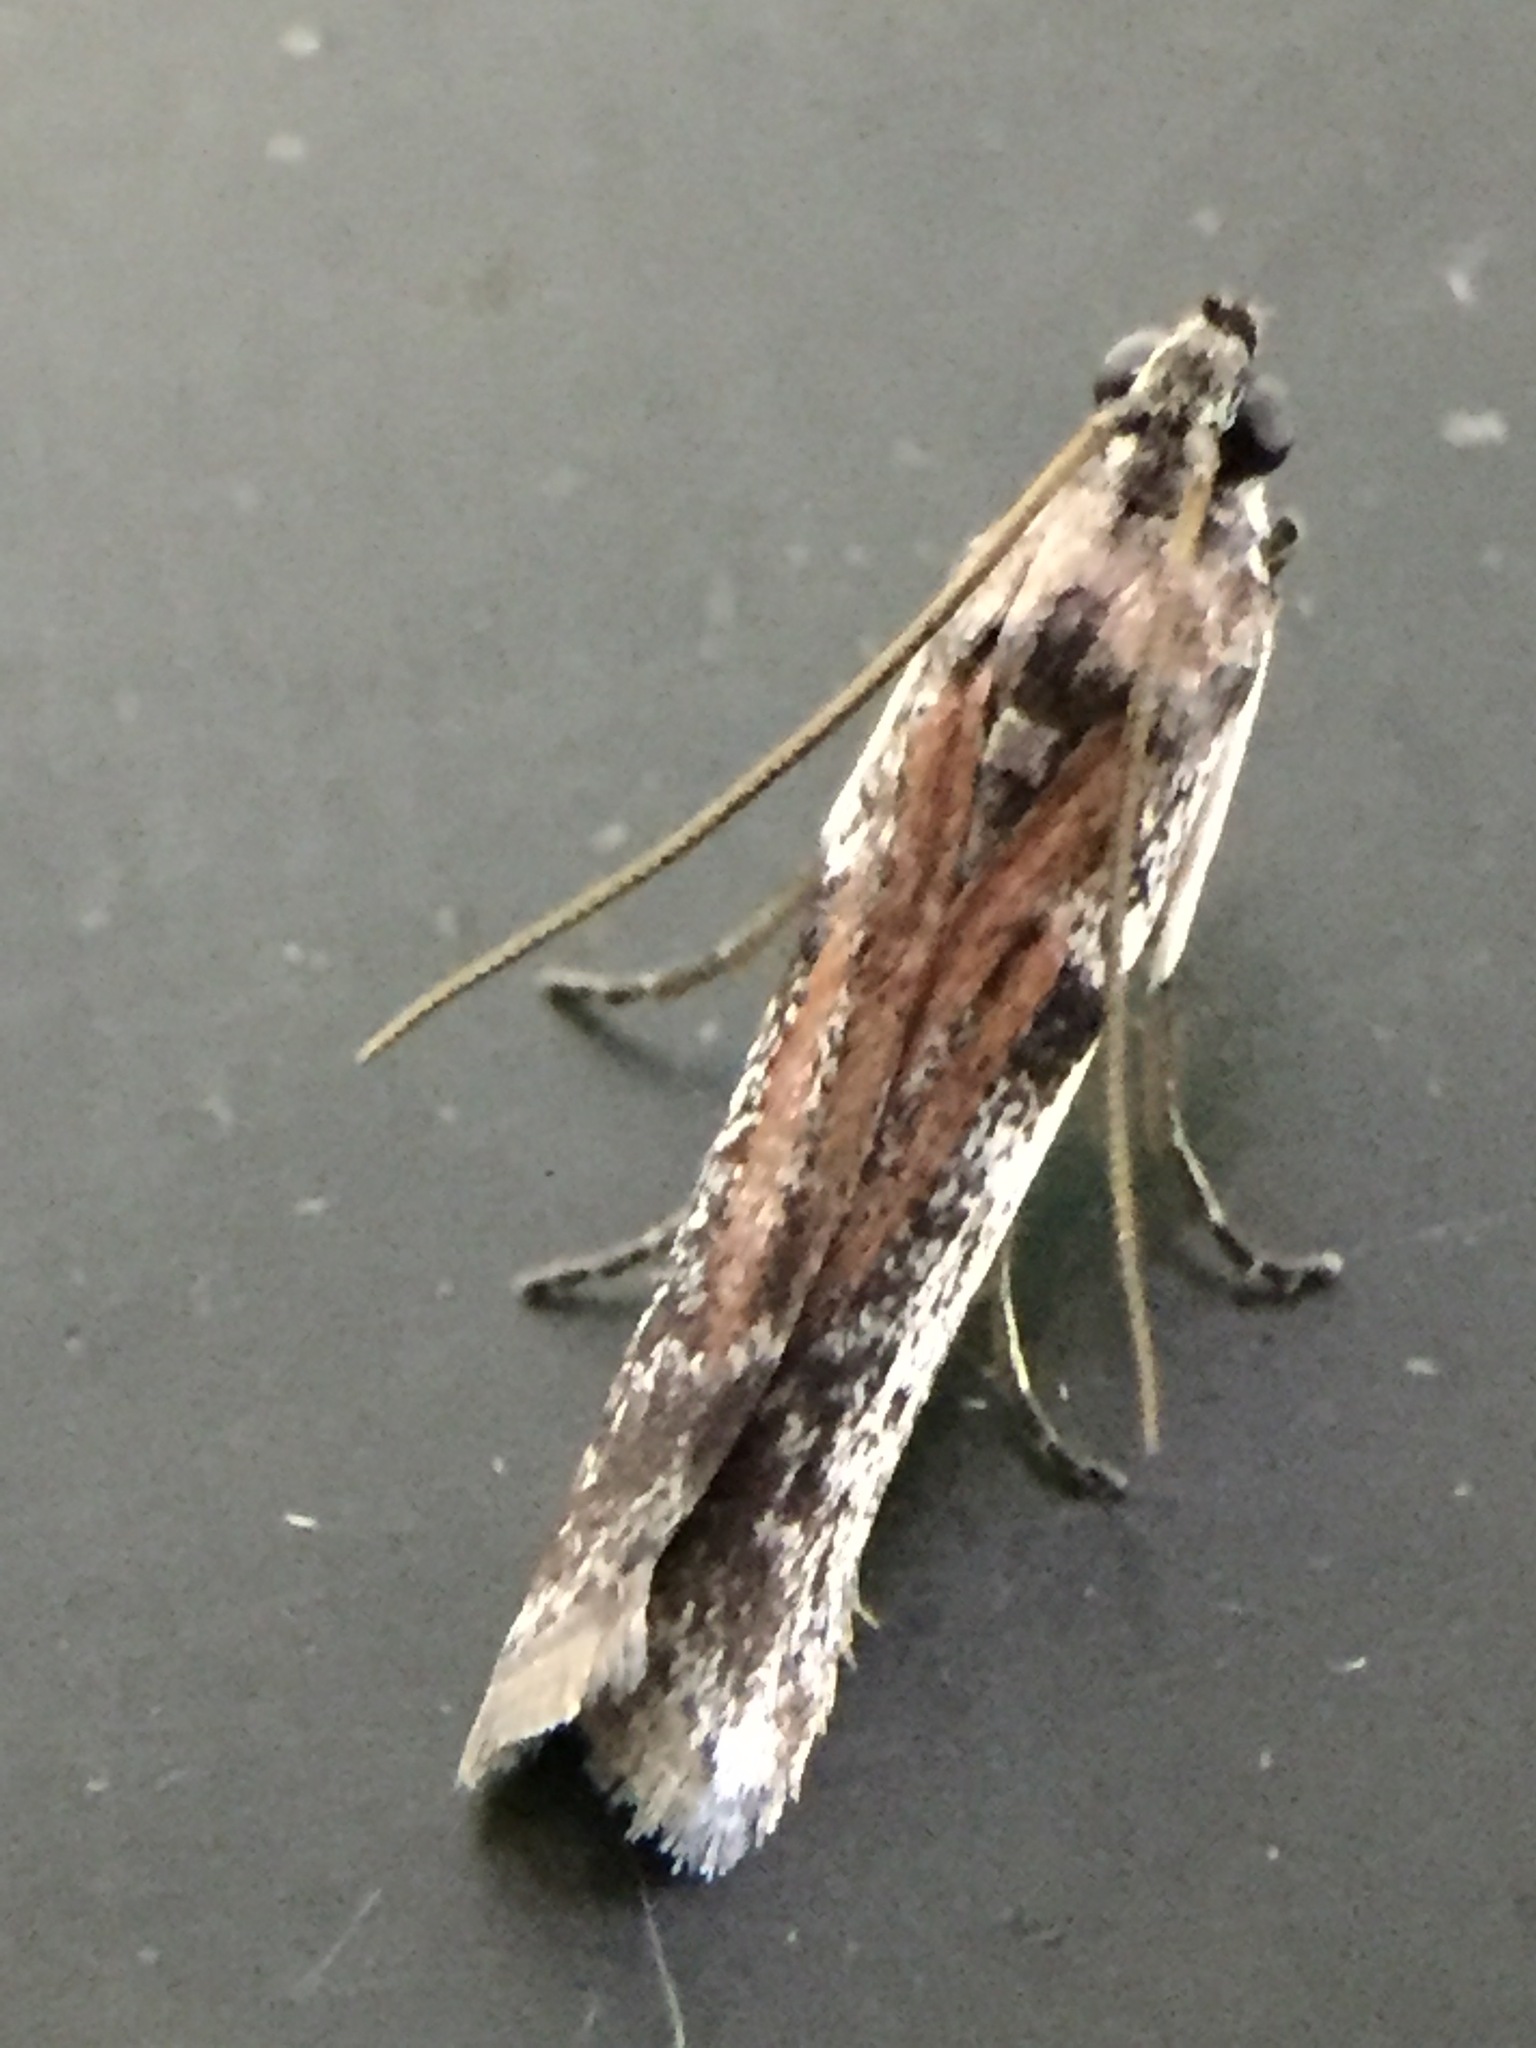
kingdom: Animalia
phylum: Arthropoda
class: Insecta
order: Lepidoptera
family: Pyralidae
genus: Patagoniodes
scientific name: Patagoniodes farinaria
